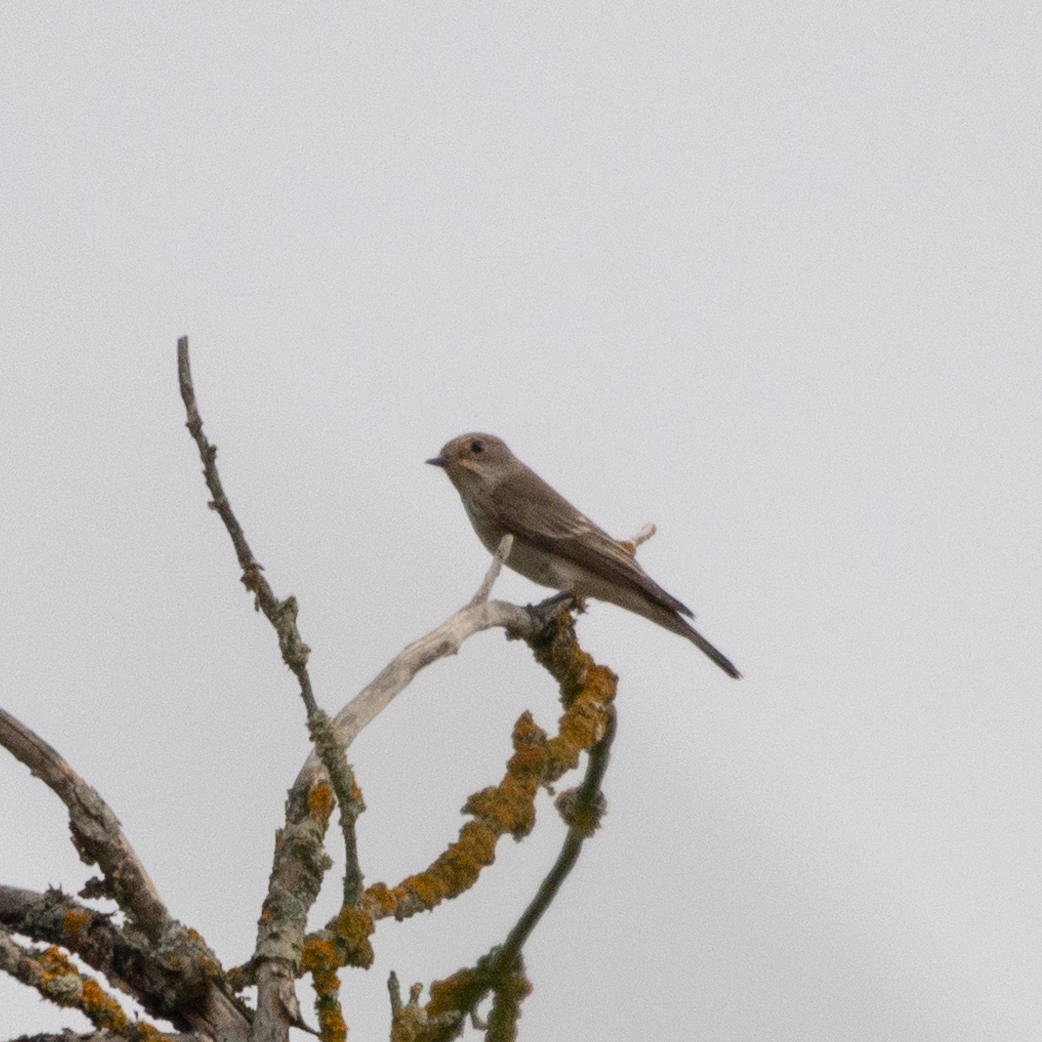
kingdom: Animalia
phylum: Chordata
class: Aves
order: Passeriformes
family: Muscicapidae
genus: Muscicapa
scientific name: Muscicapa striata
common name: Spotted flycatcher
